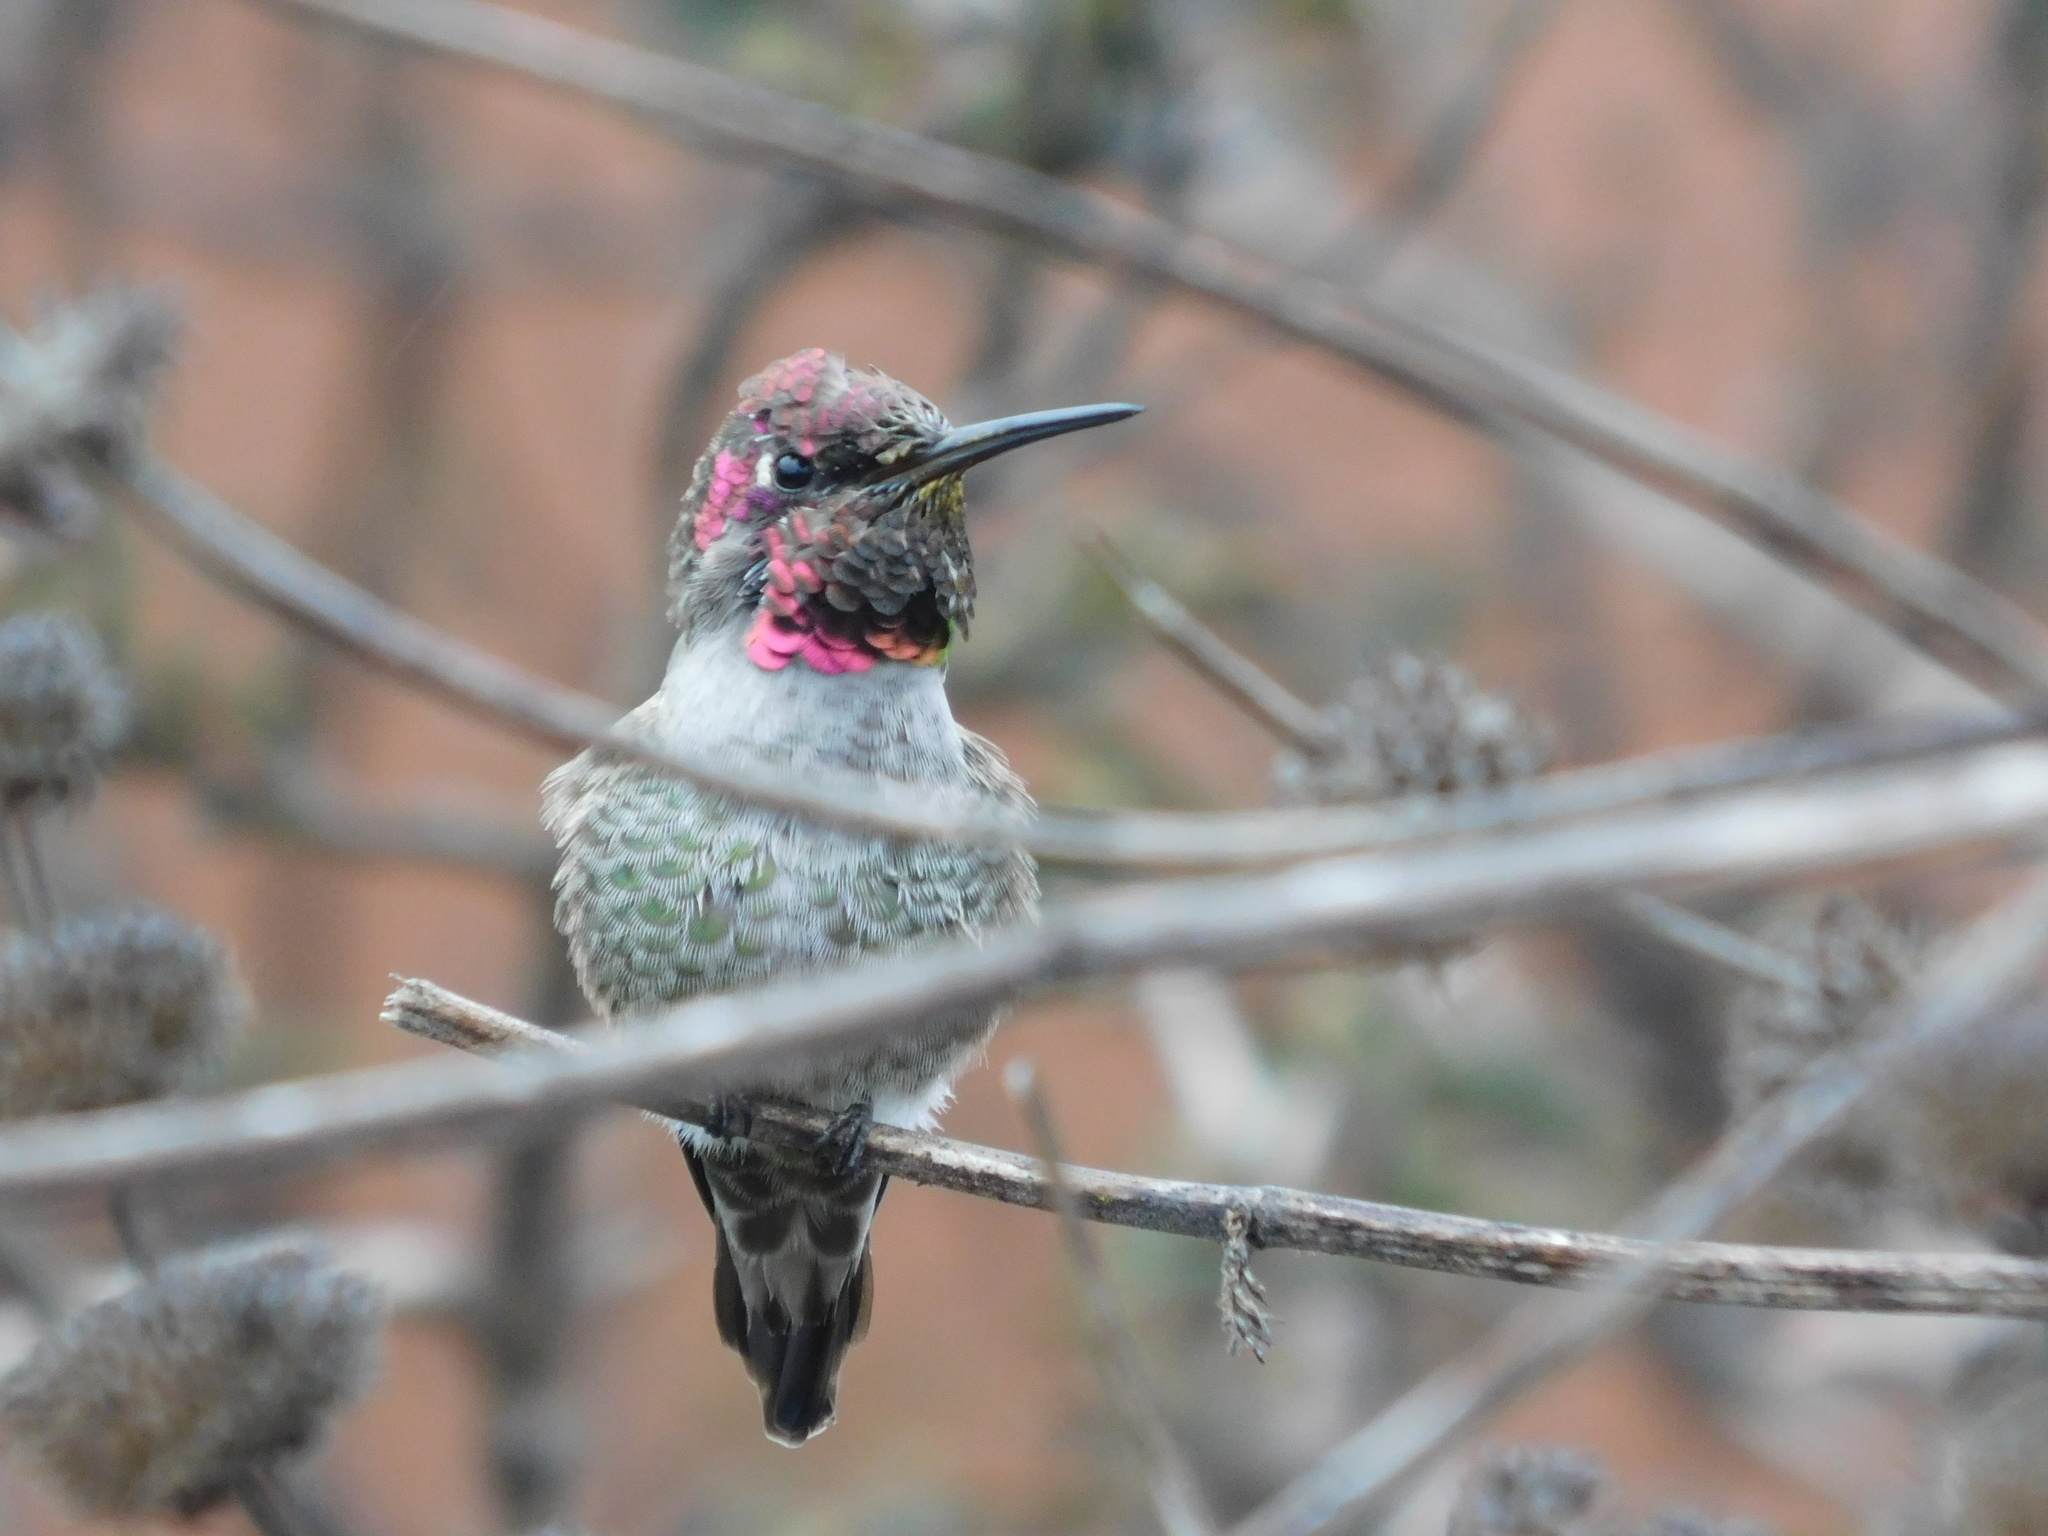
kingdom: Animalia
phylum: Chordata
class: Aves
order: Apodiformes
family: Trochilidae
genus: Calypte
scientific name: Calypte anna
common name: Anna's hummingbird
